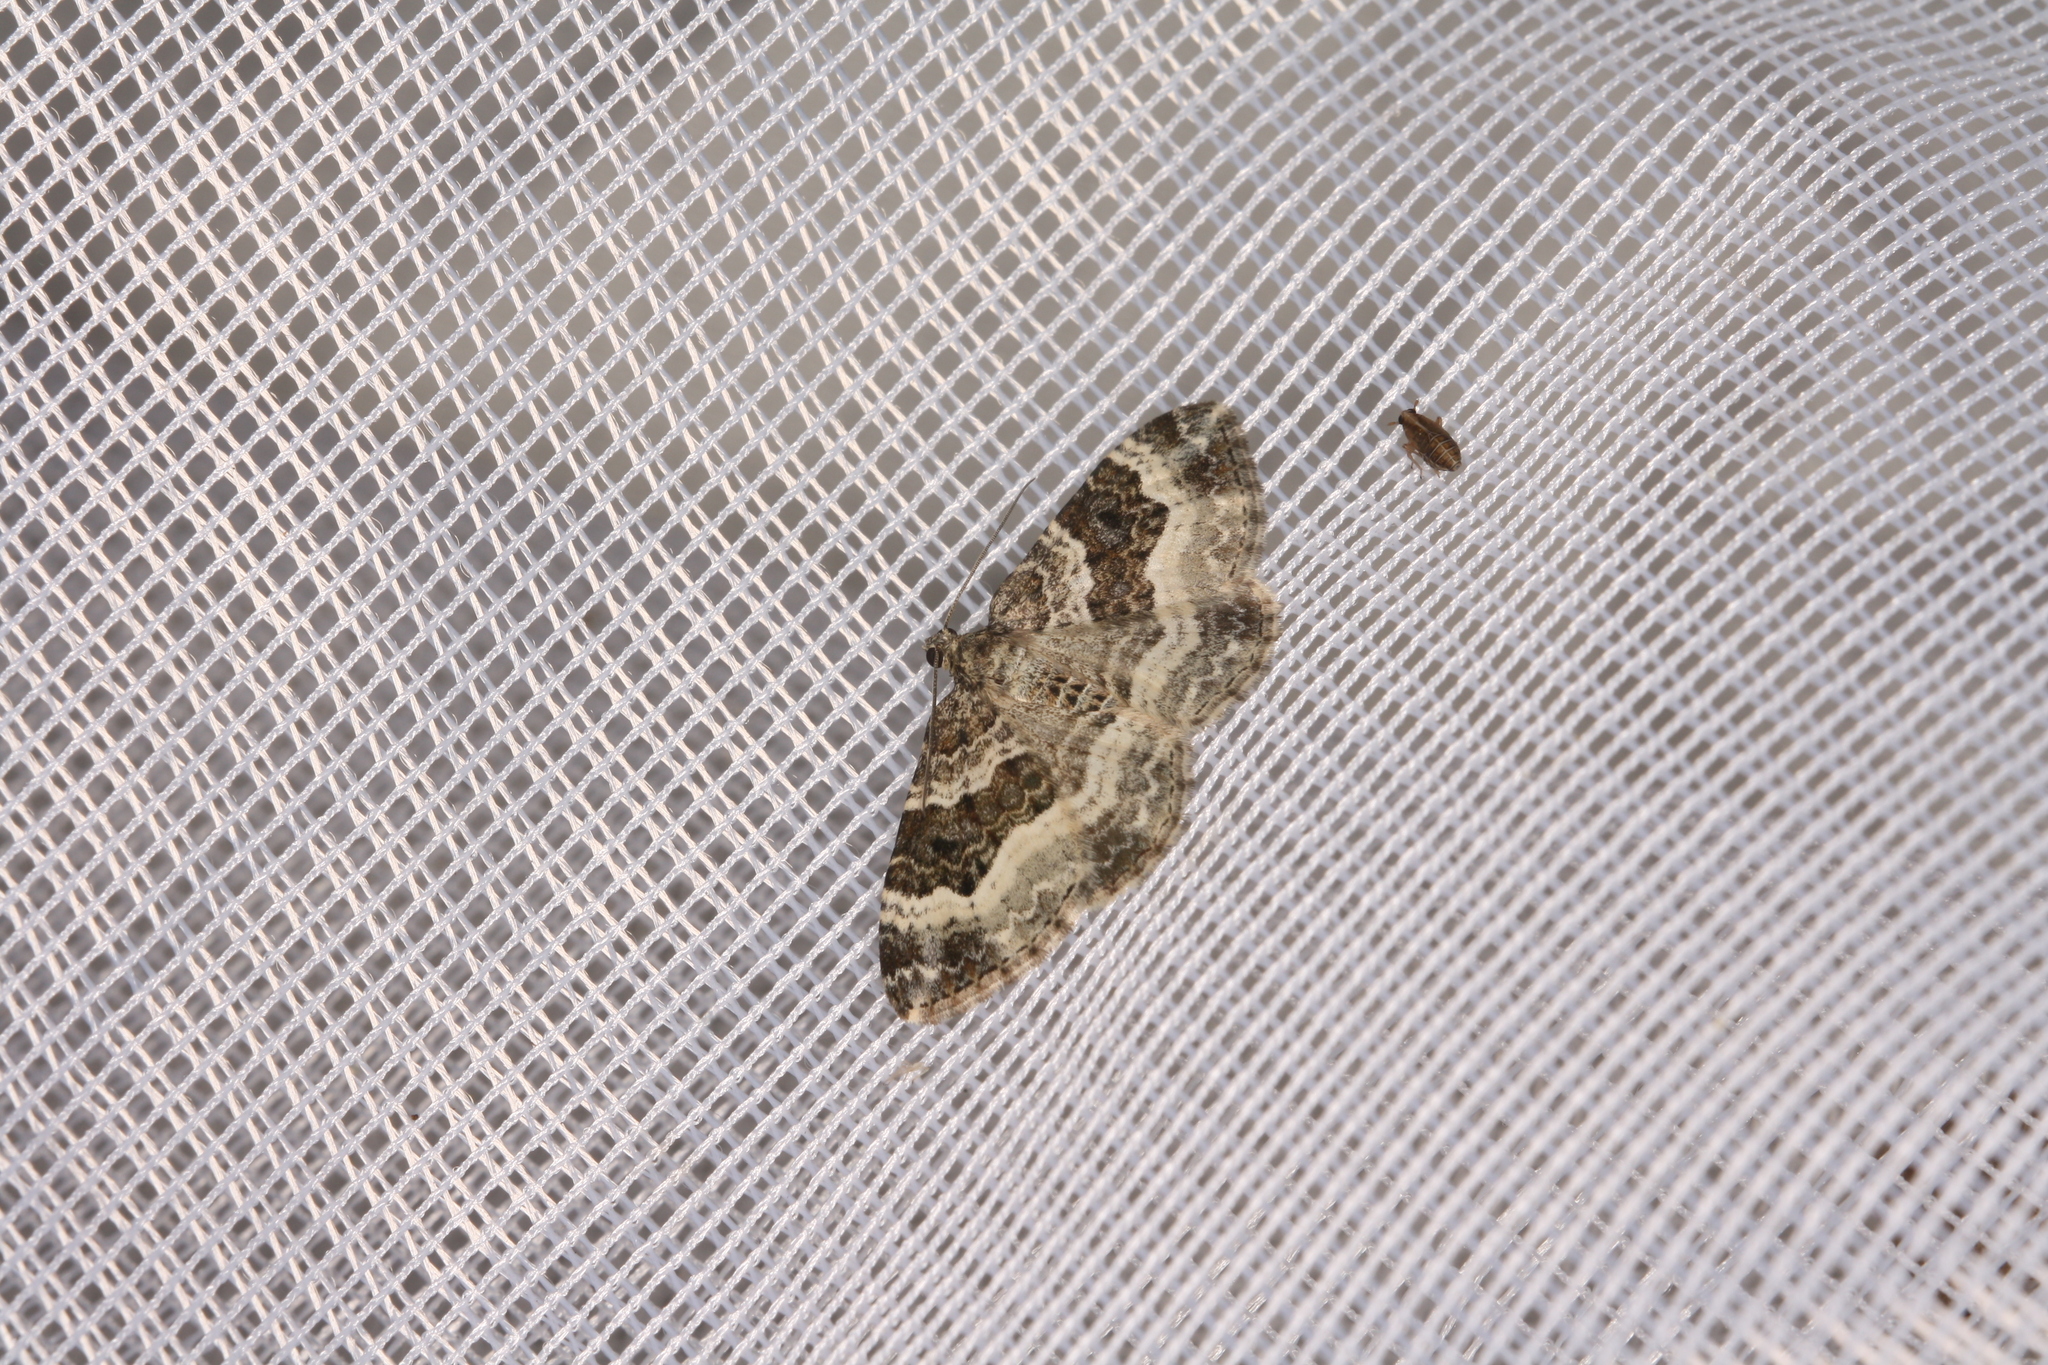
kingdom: Animalia
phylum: Arthropoda
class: Insecta
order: Lepidoptera
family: Geometridae
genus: Epirrhoe
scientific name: Epirrhoe alternata
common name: Common carpet
